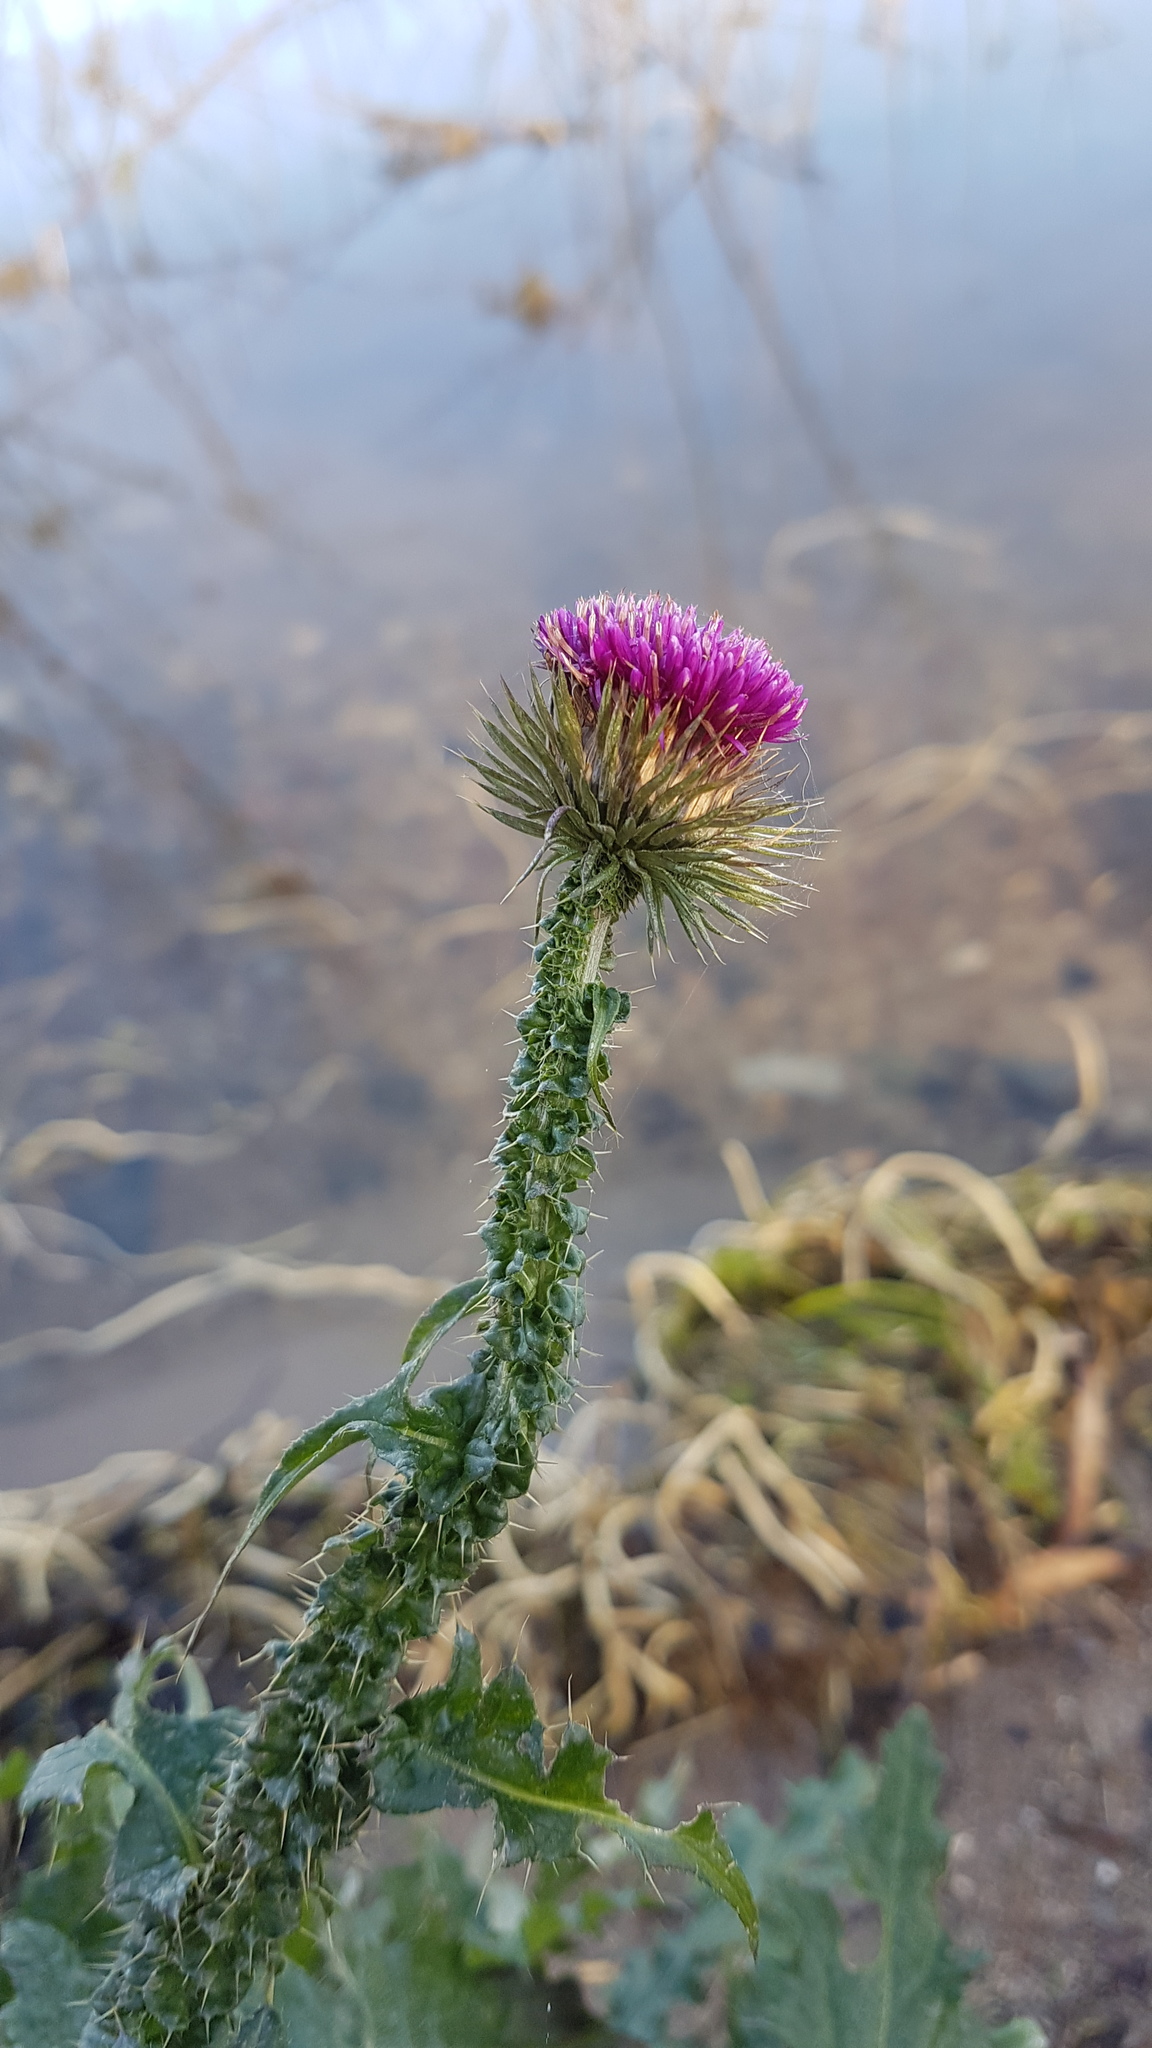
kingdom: Plantae
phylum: Tracheophyta
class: Magnoliopsida
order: Asterales
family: Asteraceae
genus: Carduus
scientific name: Carduus crispus
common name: Welted thistle
